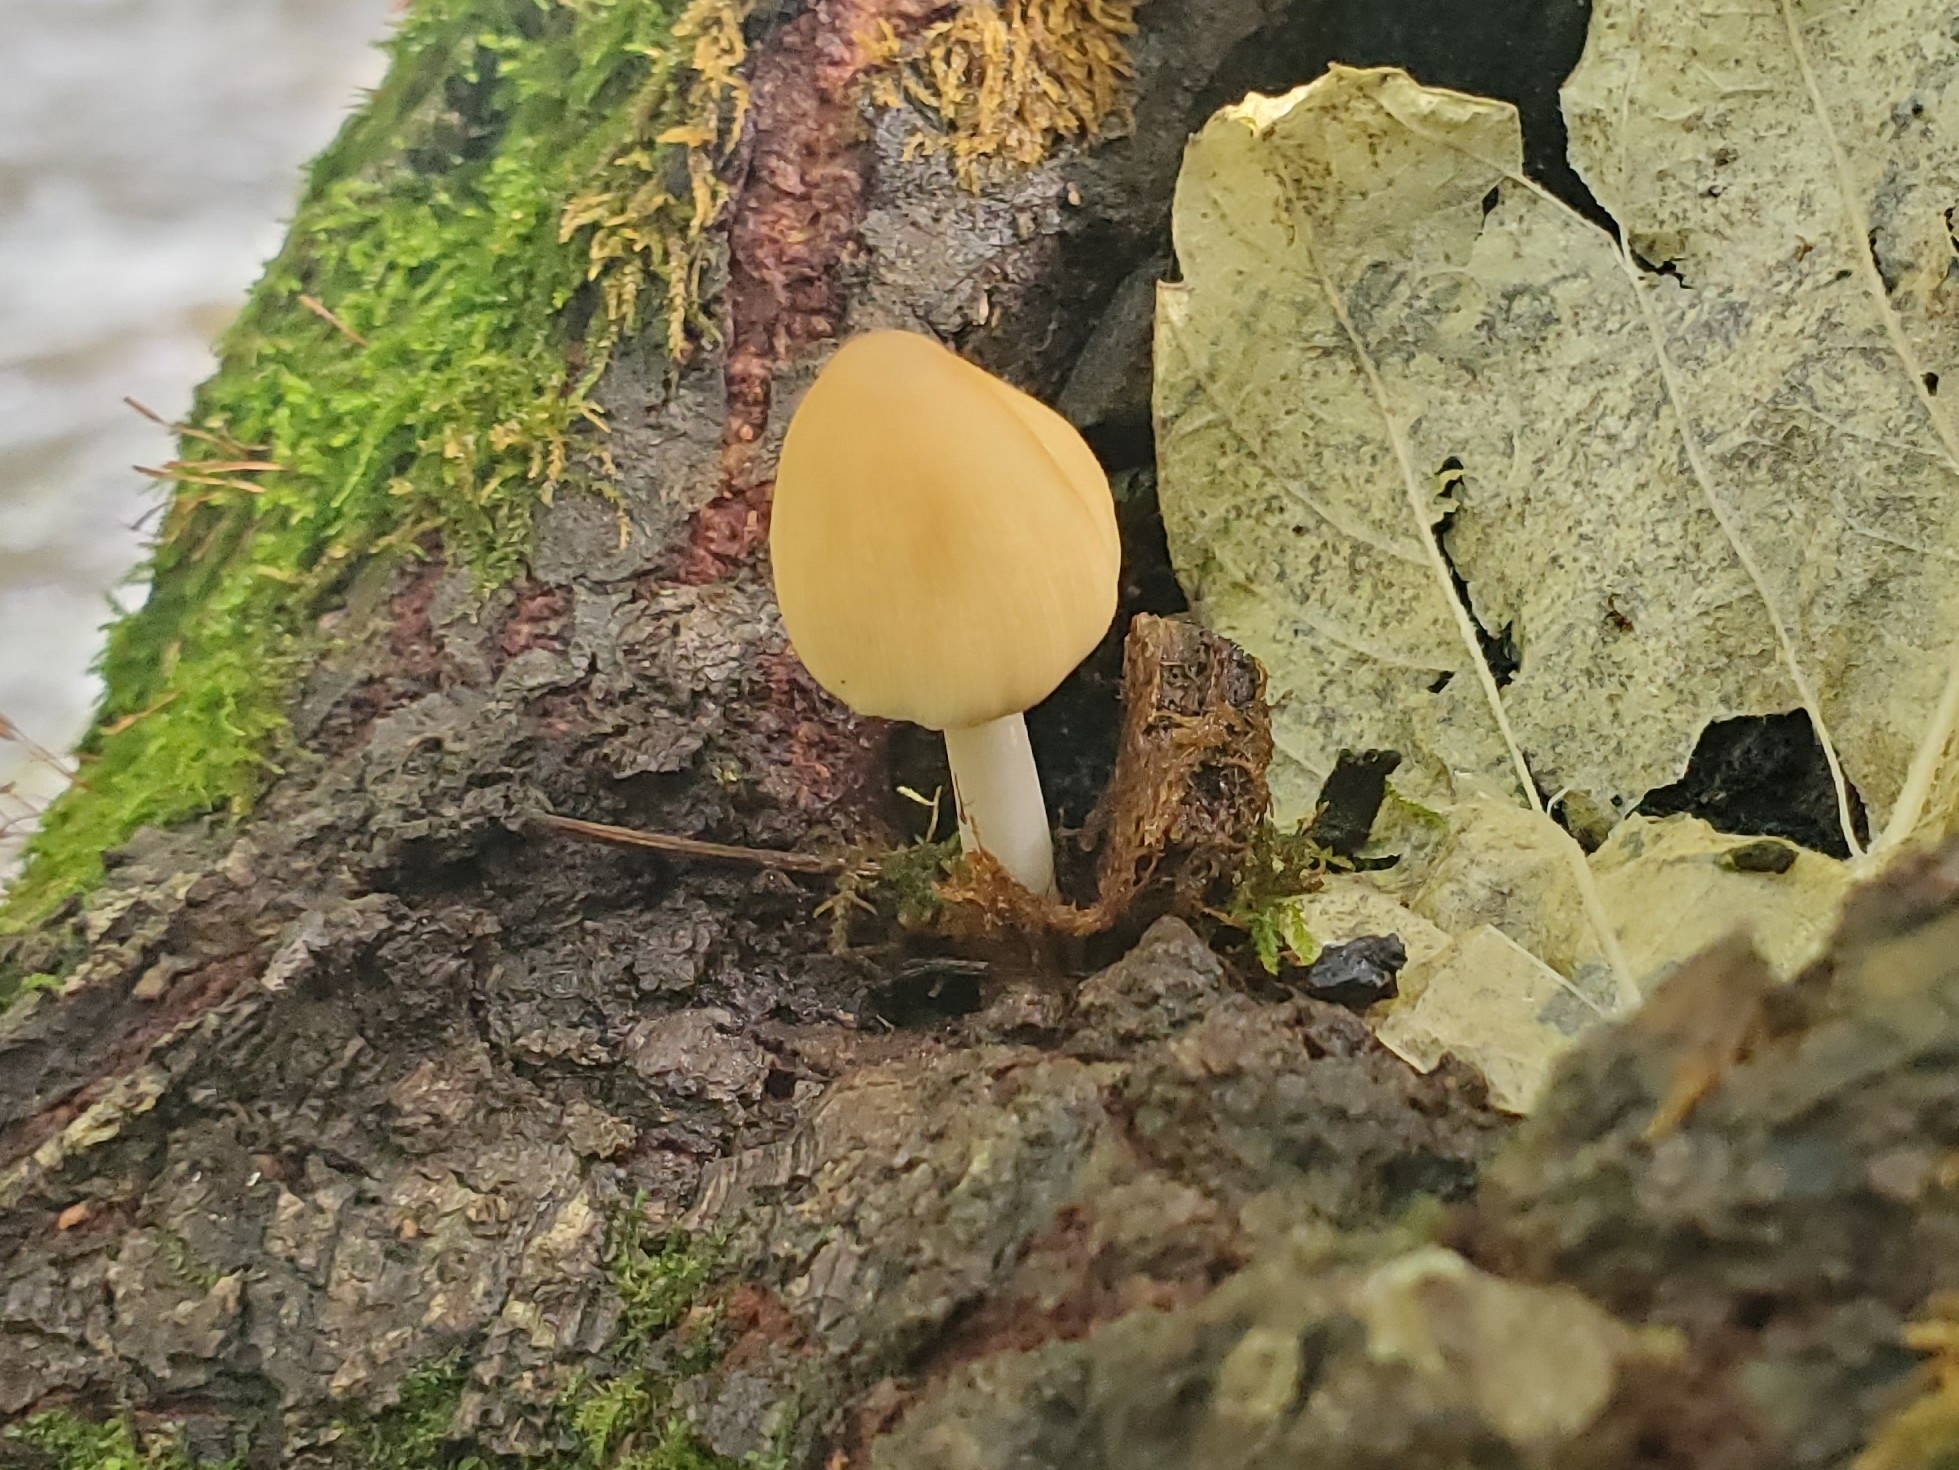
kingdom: Fungi
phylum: Basidiomycota
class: Agaricomycetes
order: Agaricales
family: Psathyrellaceae
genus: Coprinellus
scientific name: Coprinellus
